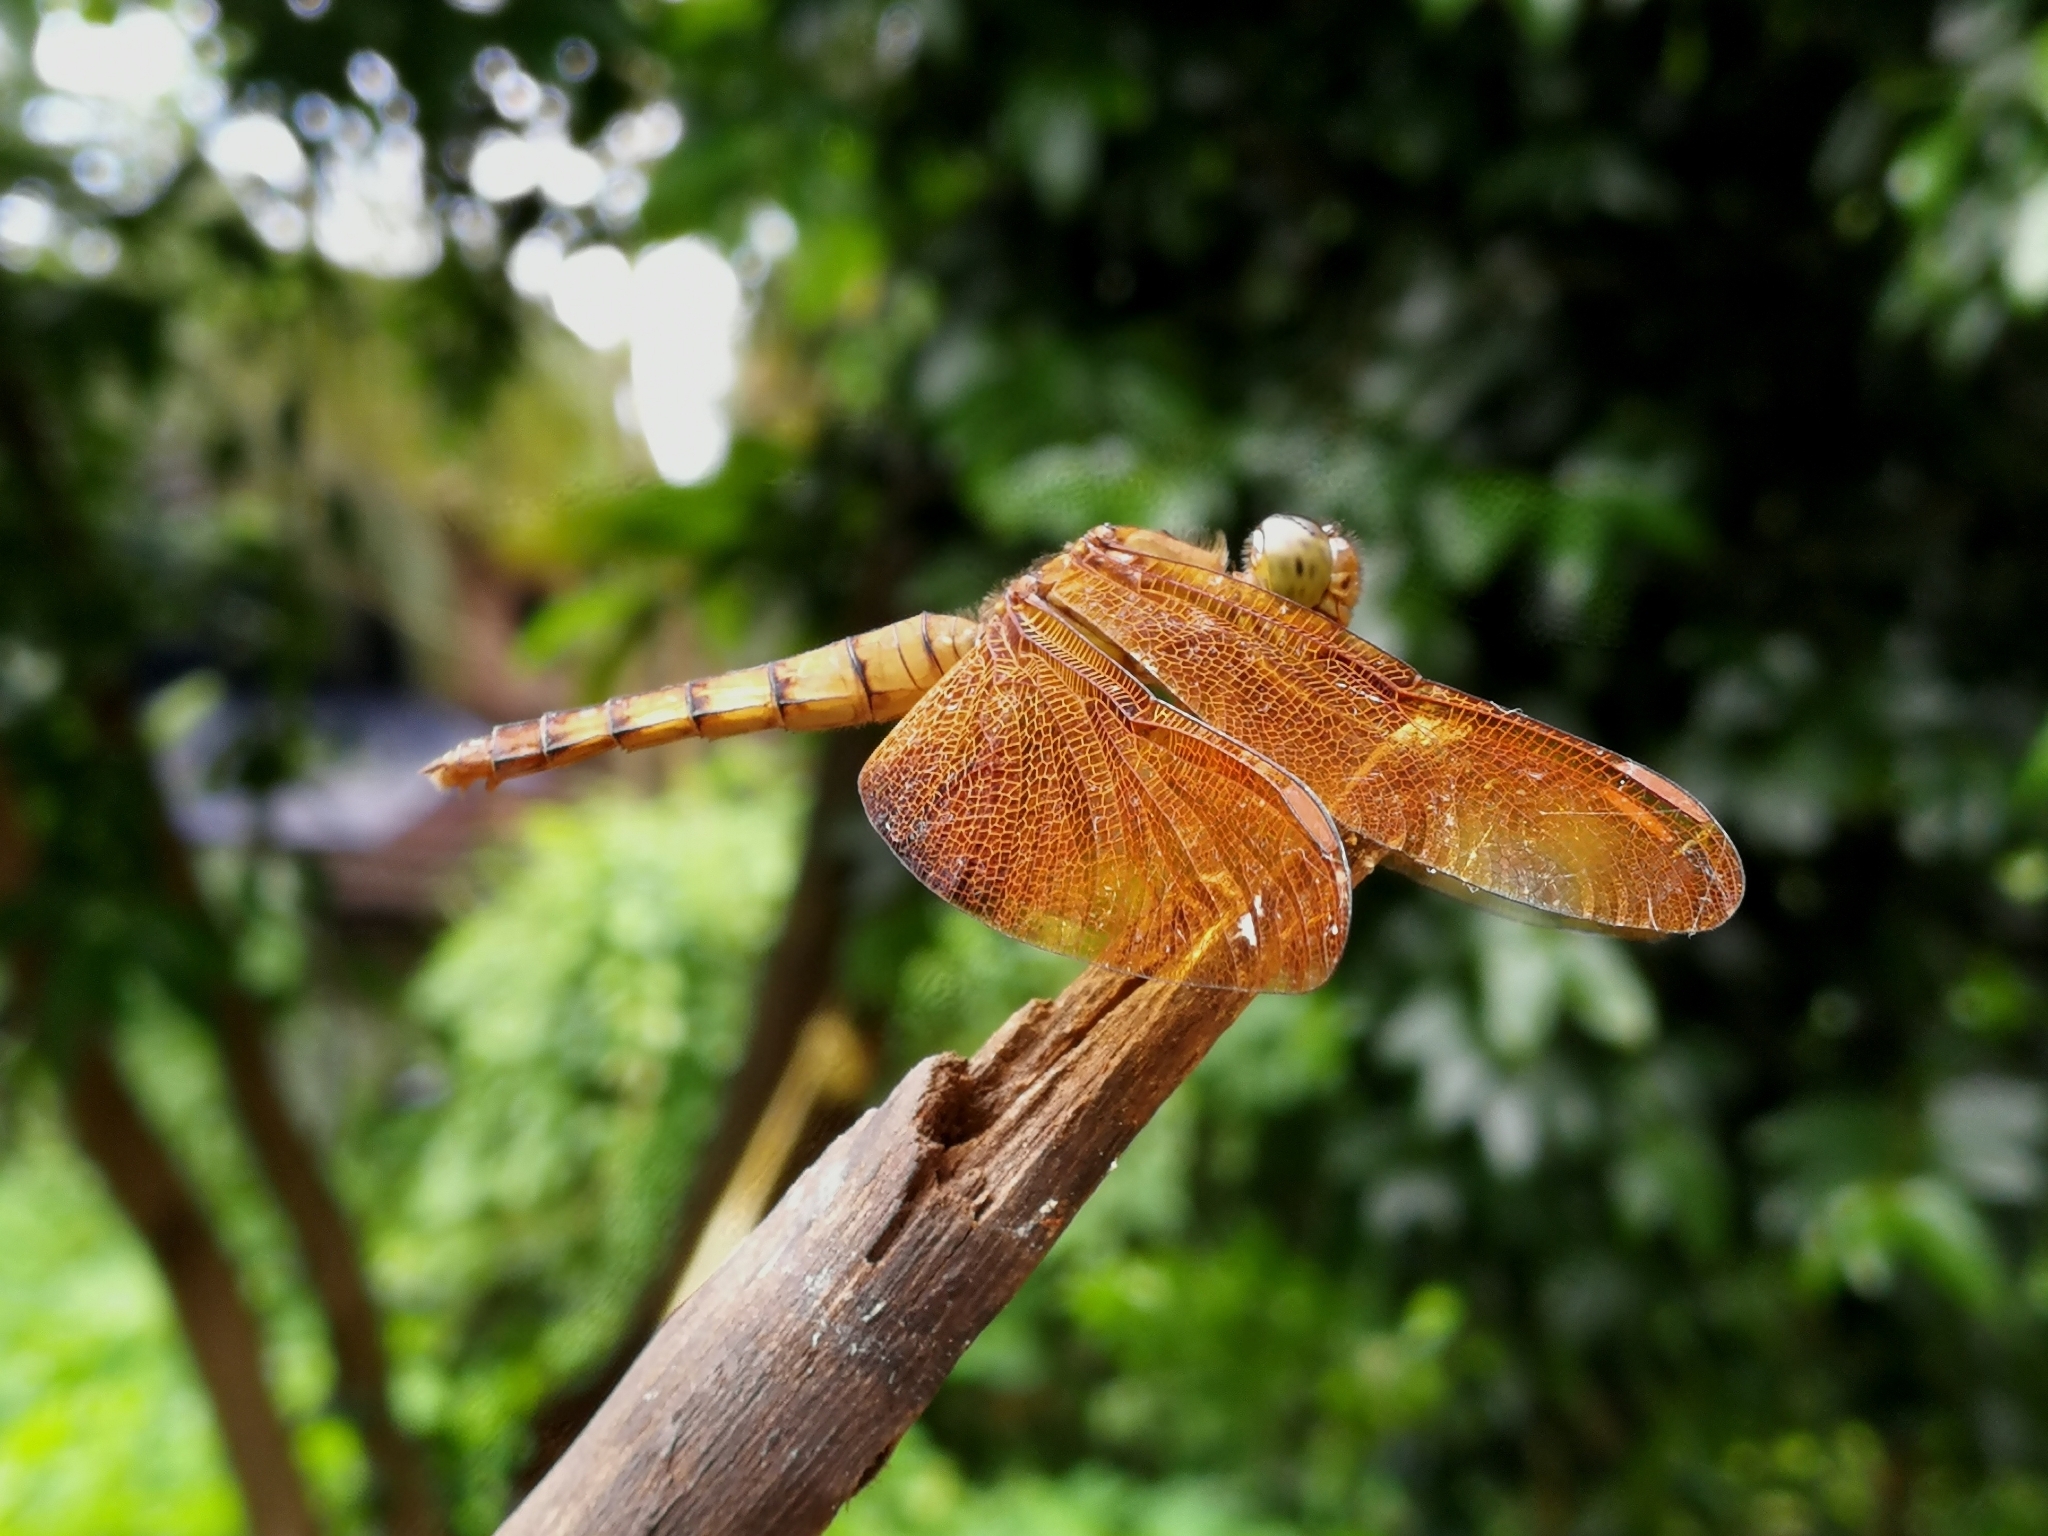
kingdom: Animalia
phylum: Arthropoda
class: Insecta
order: Odonata
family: Libellulidae
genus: Neurothemis
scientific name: Neurothemis fulvia
